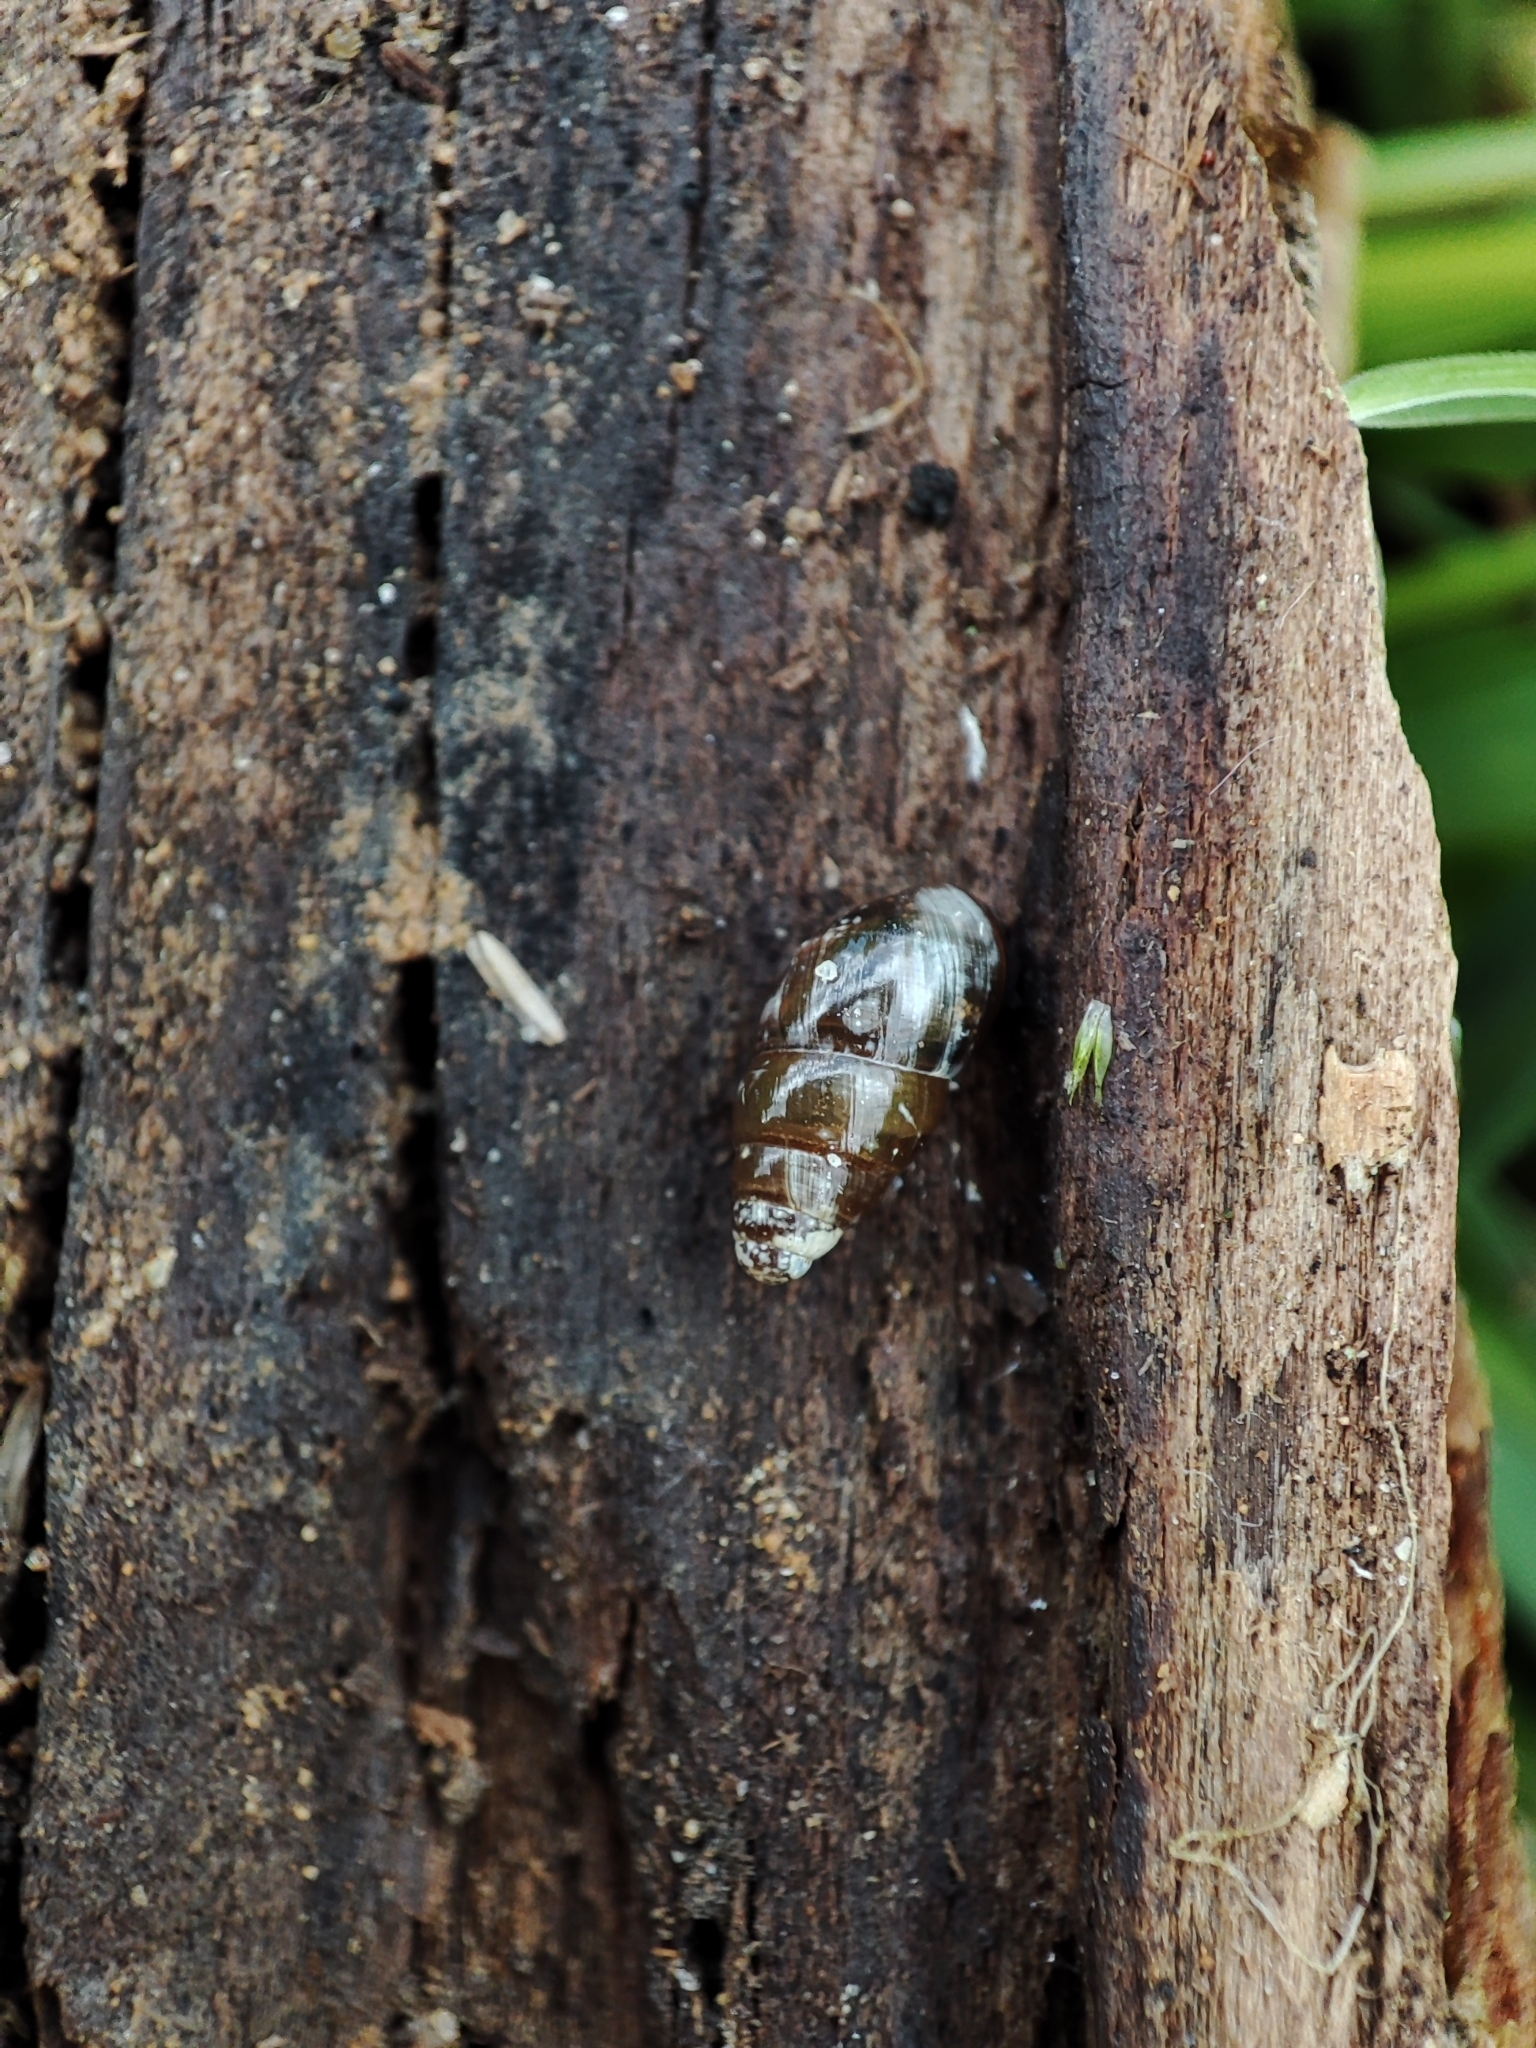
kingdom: Animalia
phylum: Mollusca
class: Gastropoda
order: Stylommatophora
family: Cochlicopidae
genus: Cochlicopa
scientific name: Cochlicopa lubrica
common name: Glossy pillar snail
